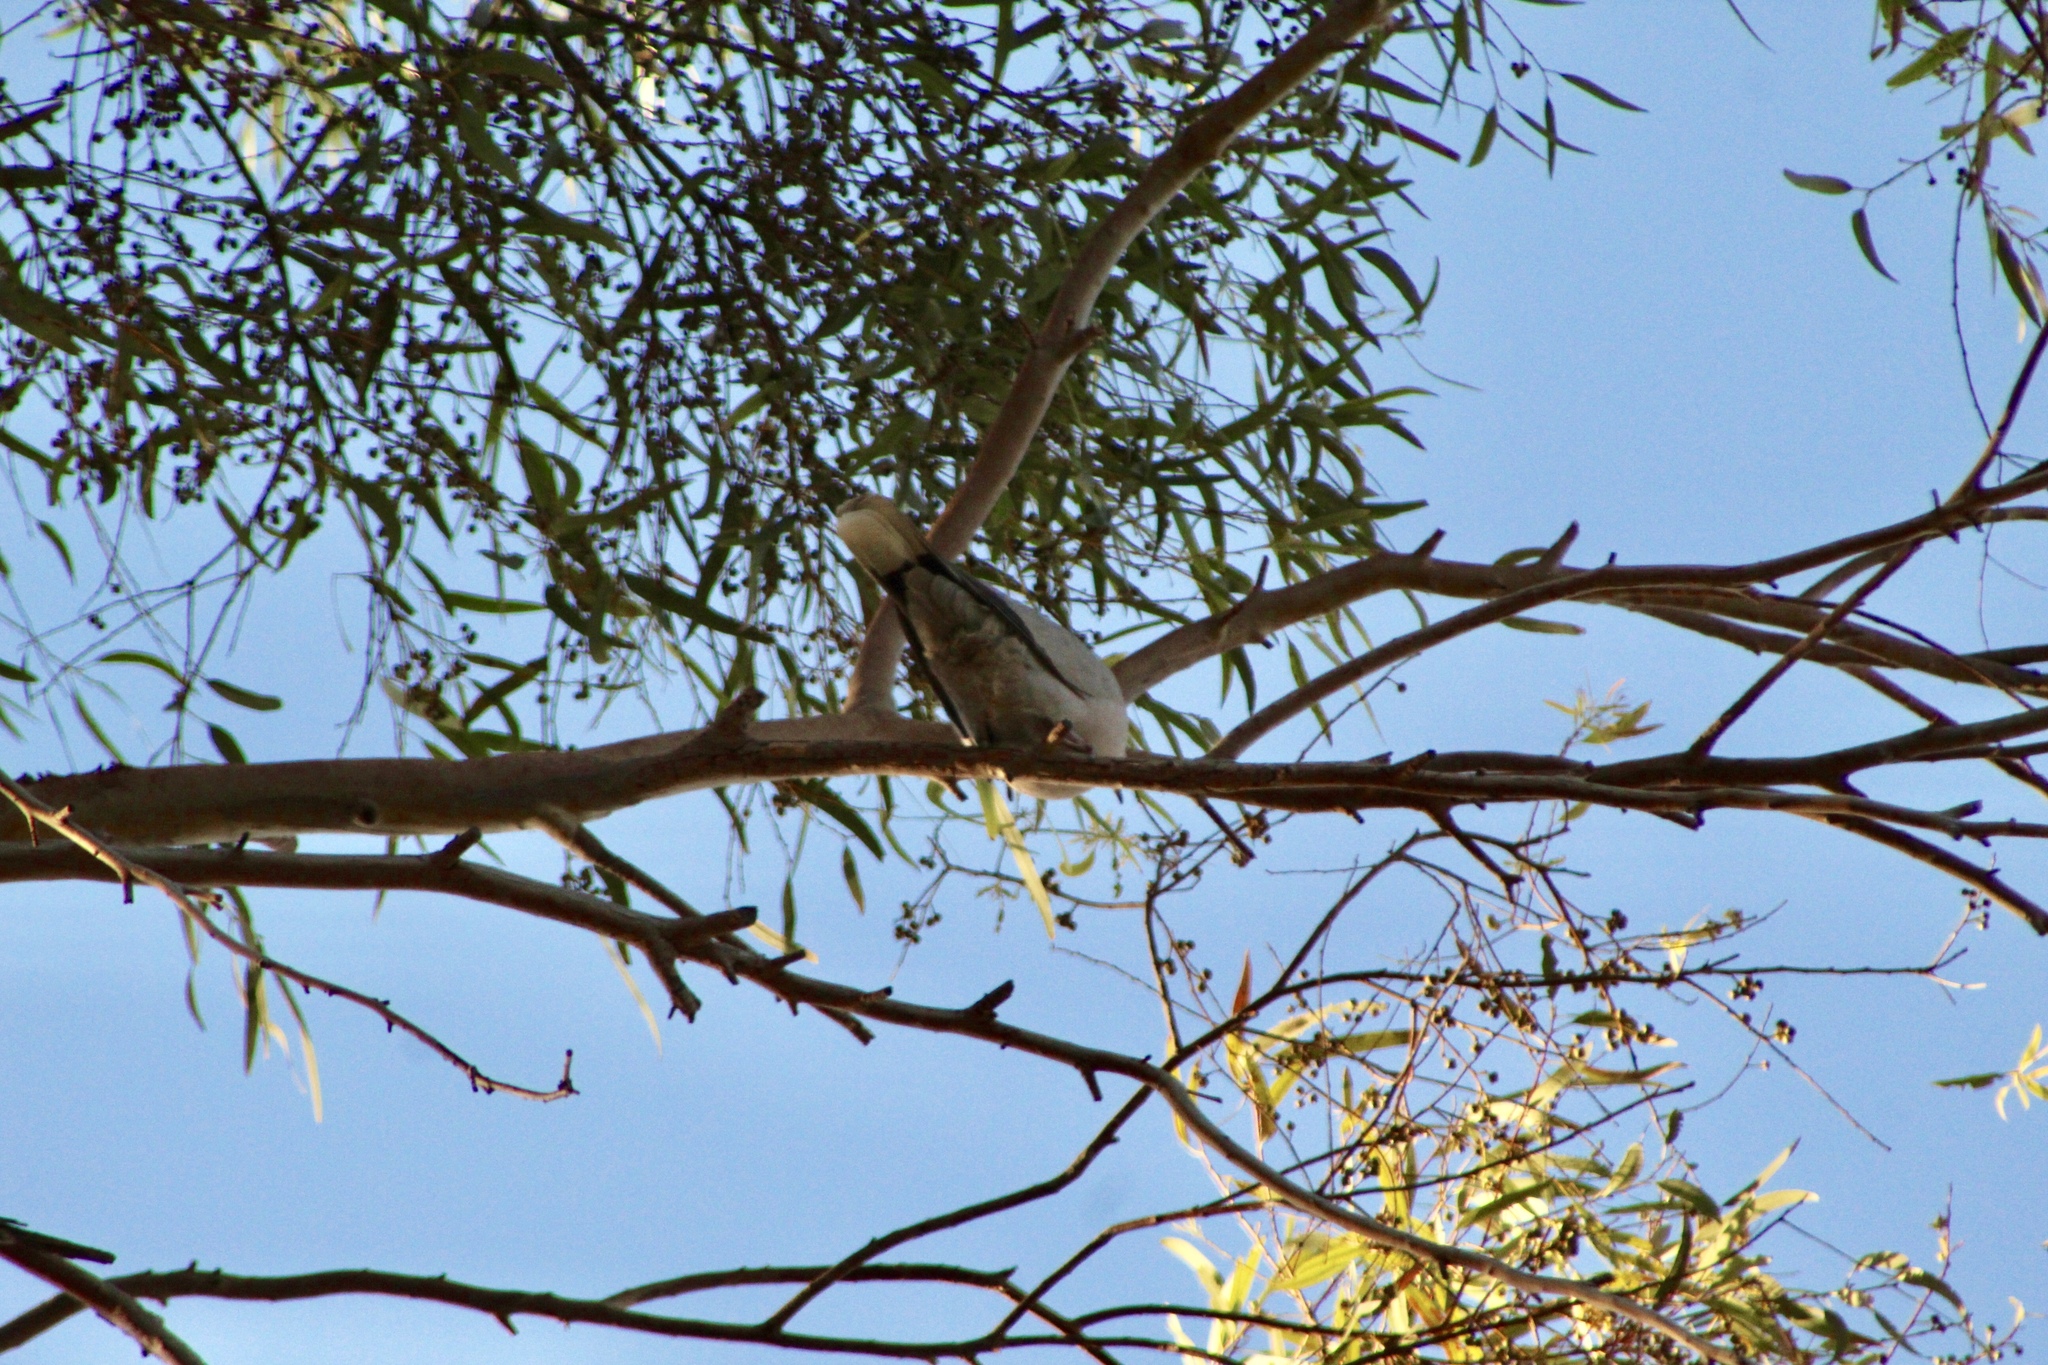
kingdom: Animalia
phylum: Chordata
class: Aves
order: Columbiformes
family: Columbidae
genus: Streptopelia
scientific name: Streptopelia decaocto
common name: Eurasian collared dove
